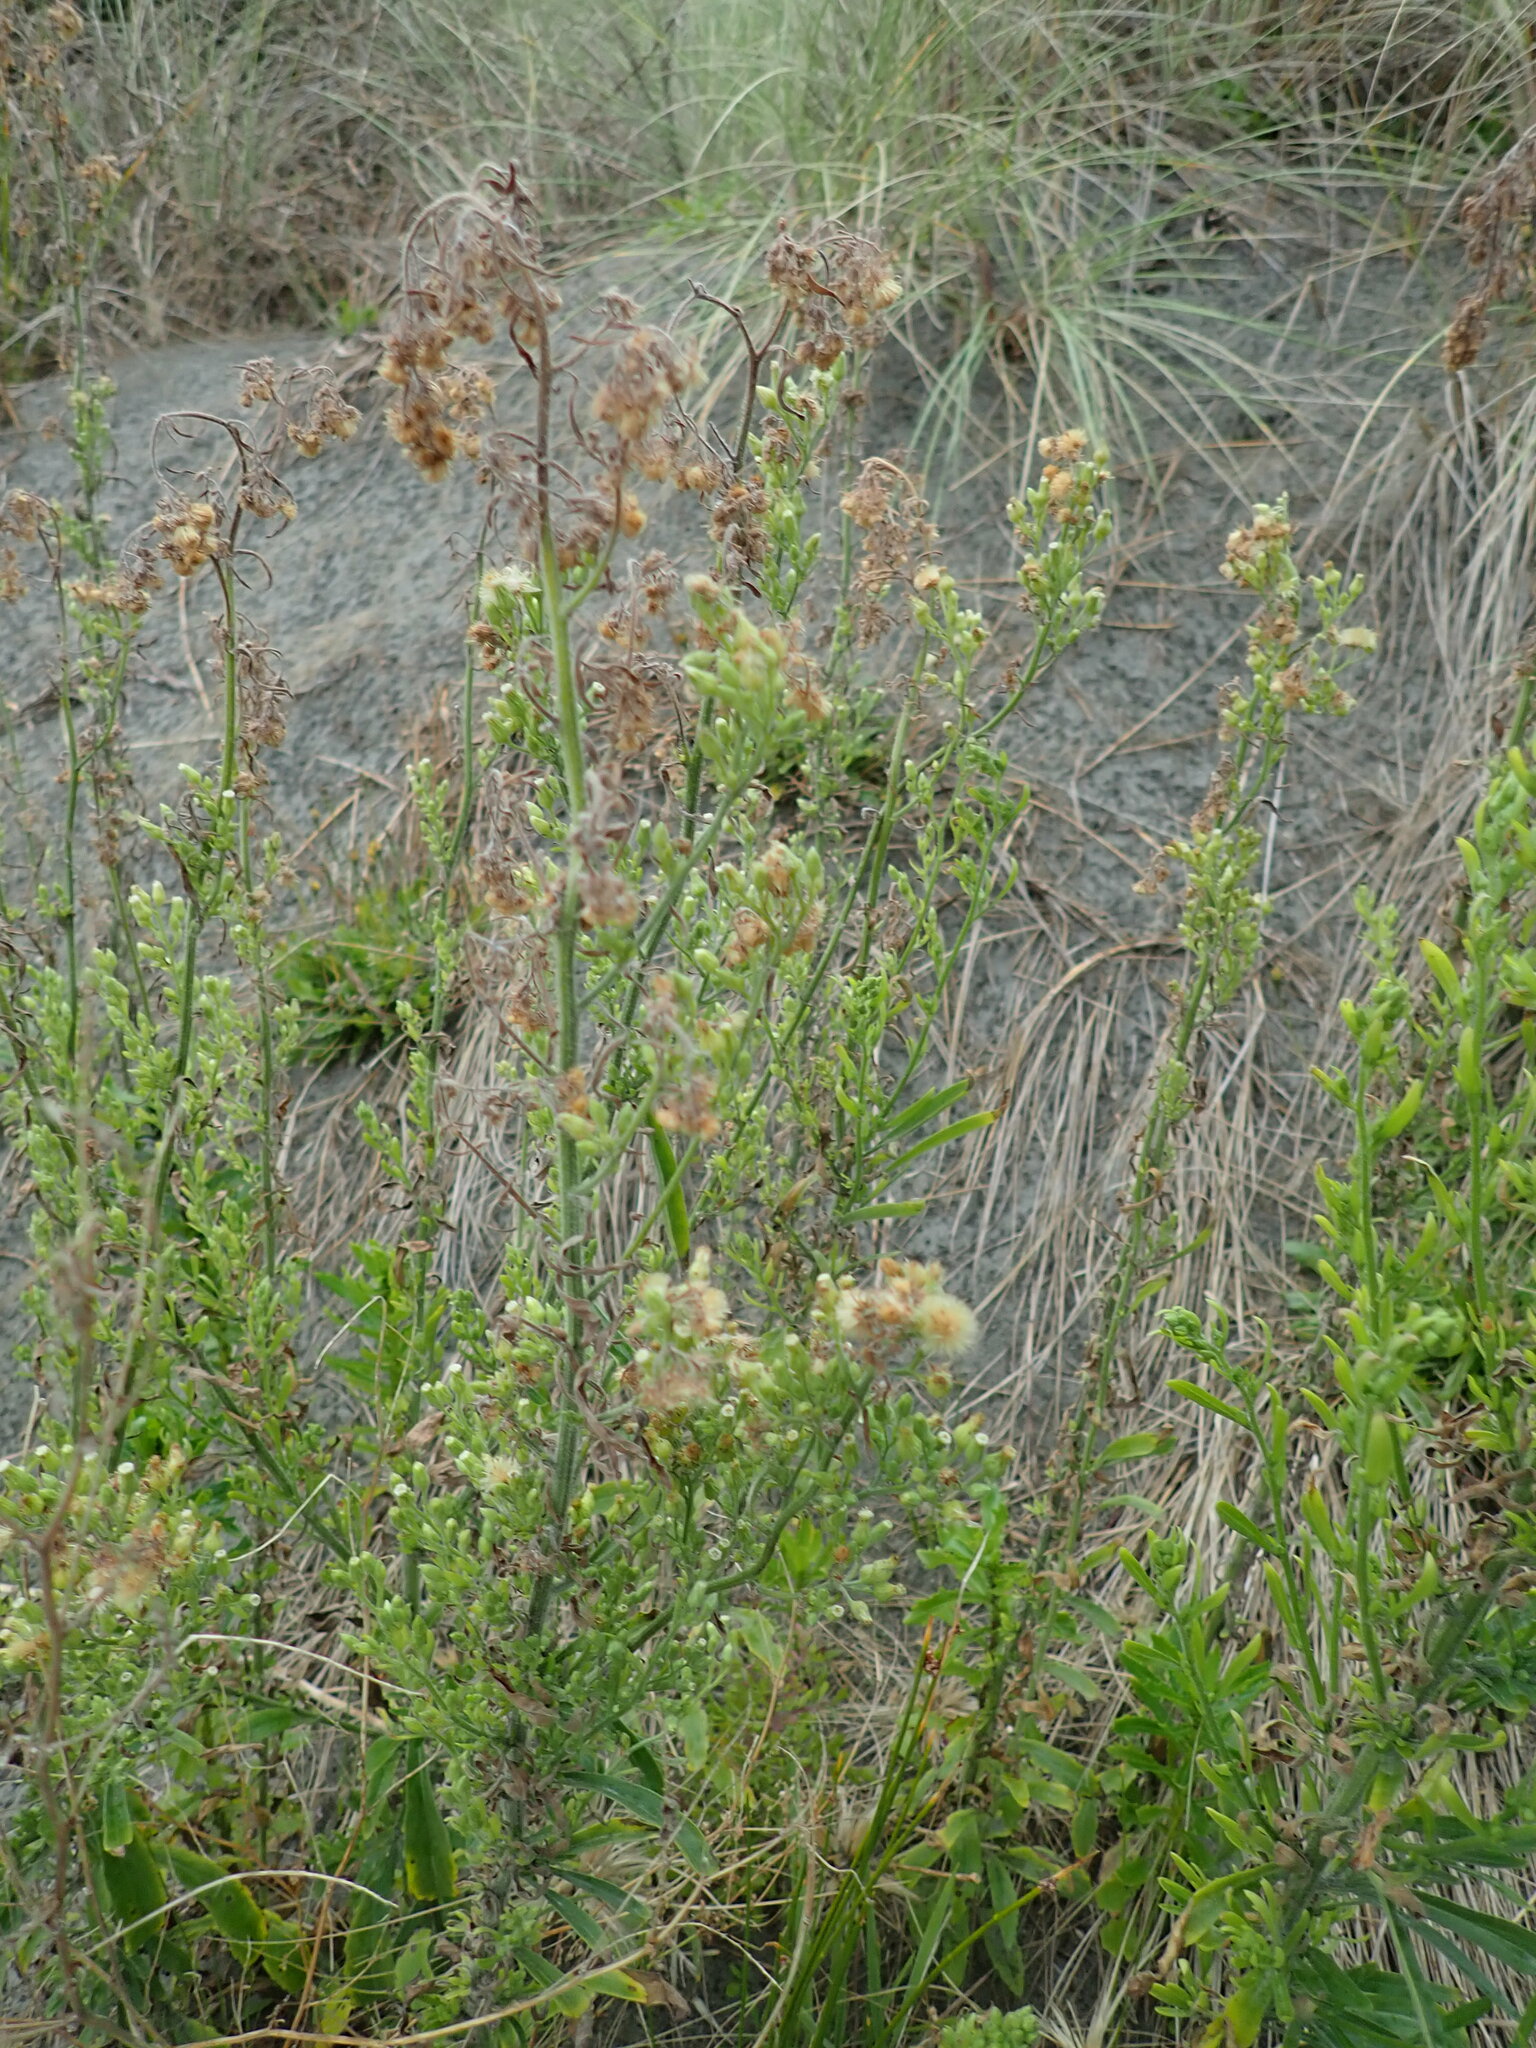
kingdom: Plantae
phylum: Tracheophyta
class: Magnoliopsida
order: Asterales
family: Asteraceae
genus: Erigeron
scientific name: Erigeron sumatrensis
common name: Daisy
